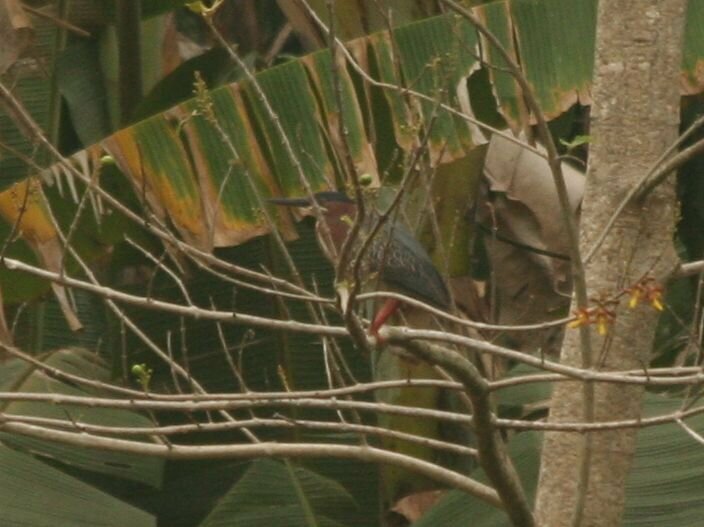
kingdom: Animalia
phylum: Chordata
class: Aves
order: Pelecaniformes
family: Ardeidae
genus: Butorides
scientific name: Butorides virescens
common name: Green heron
